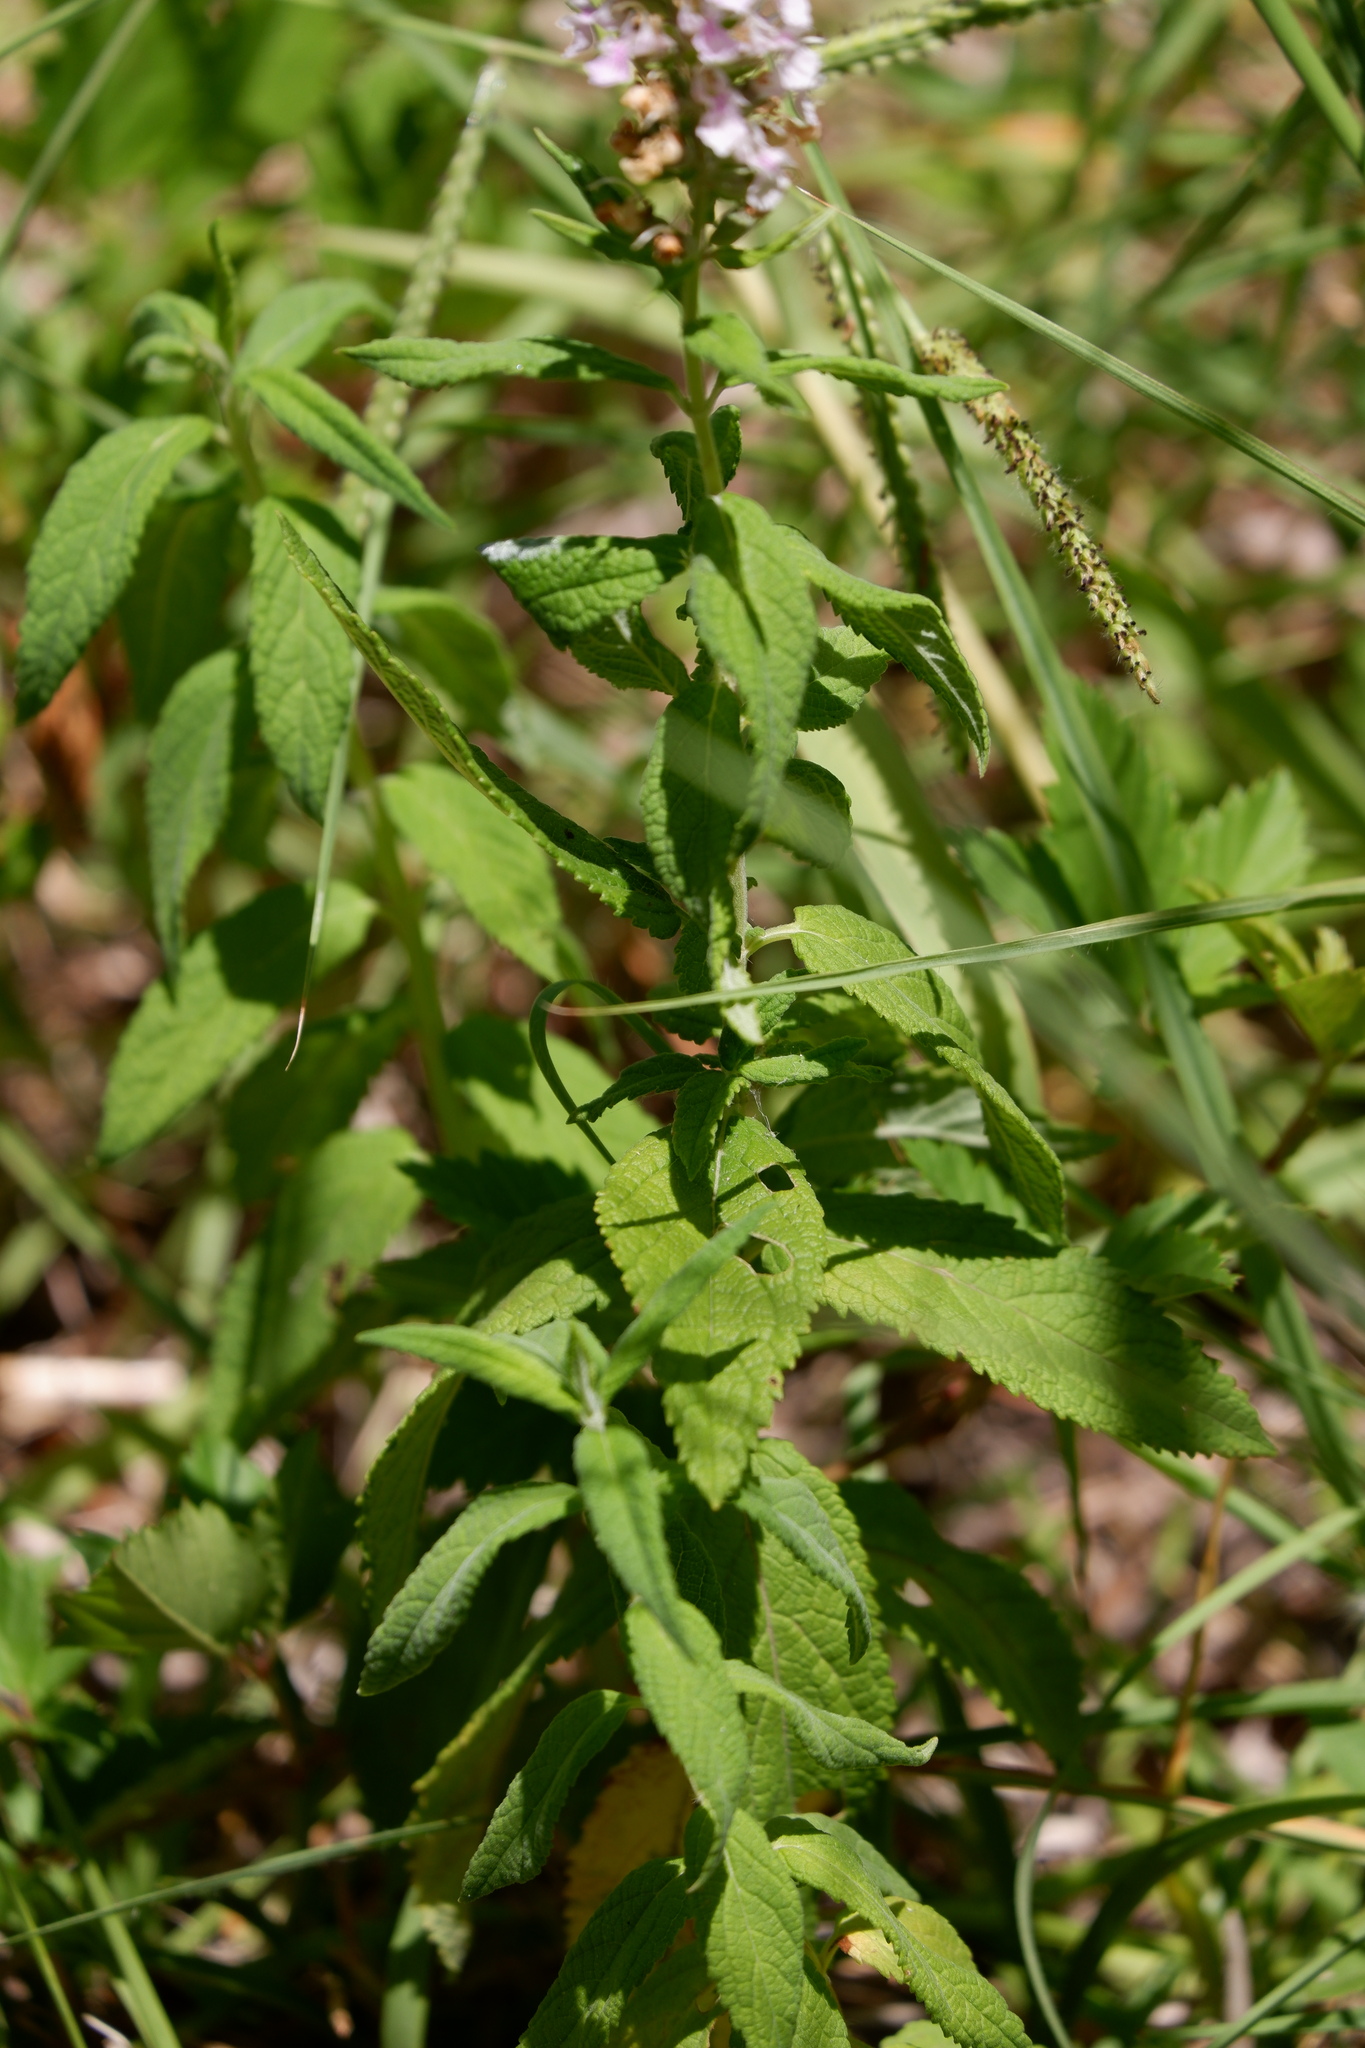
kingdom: Plantae
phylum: Tracheophyta
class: Magnoliopsida
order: Lamiales
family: Lamiaceae
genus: Teucrium
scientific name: Teucrium canadense
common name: American germander
